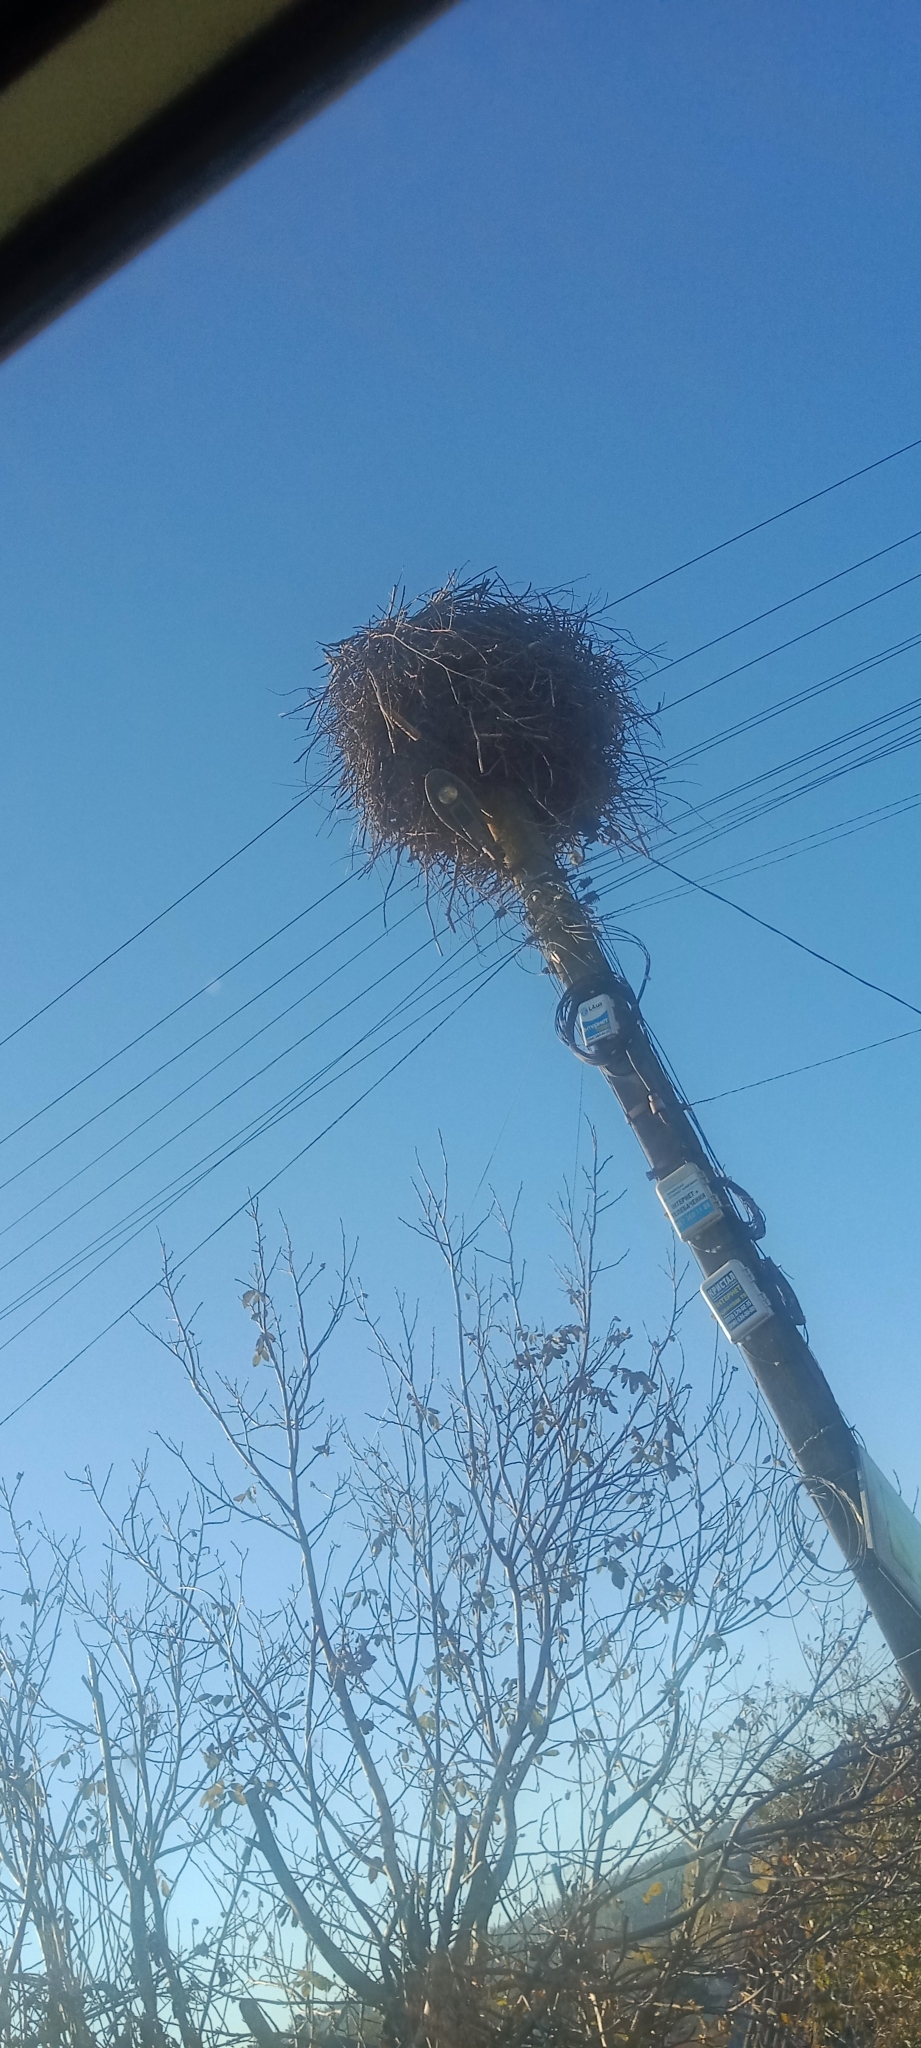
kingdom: Animalia
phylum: Chordata
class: Aves
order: Ciconiiformes
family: Ciconiidae
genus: Ciconia
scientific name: Ciconia ciconia
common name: White stork
